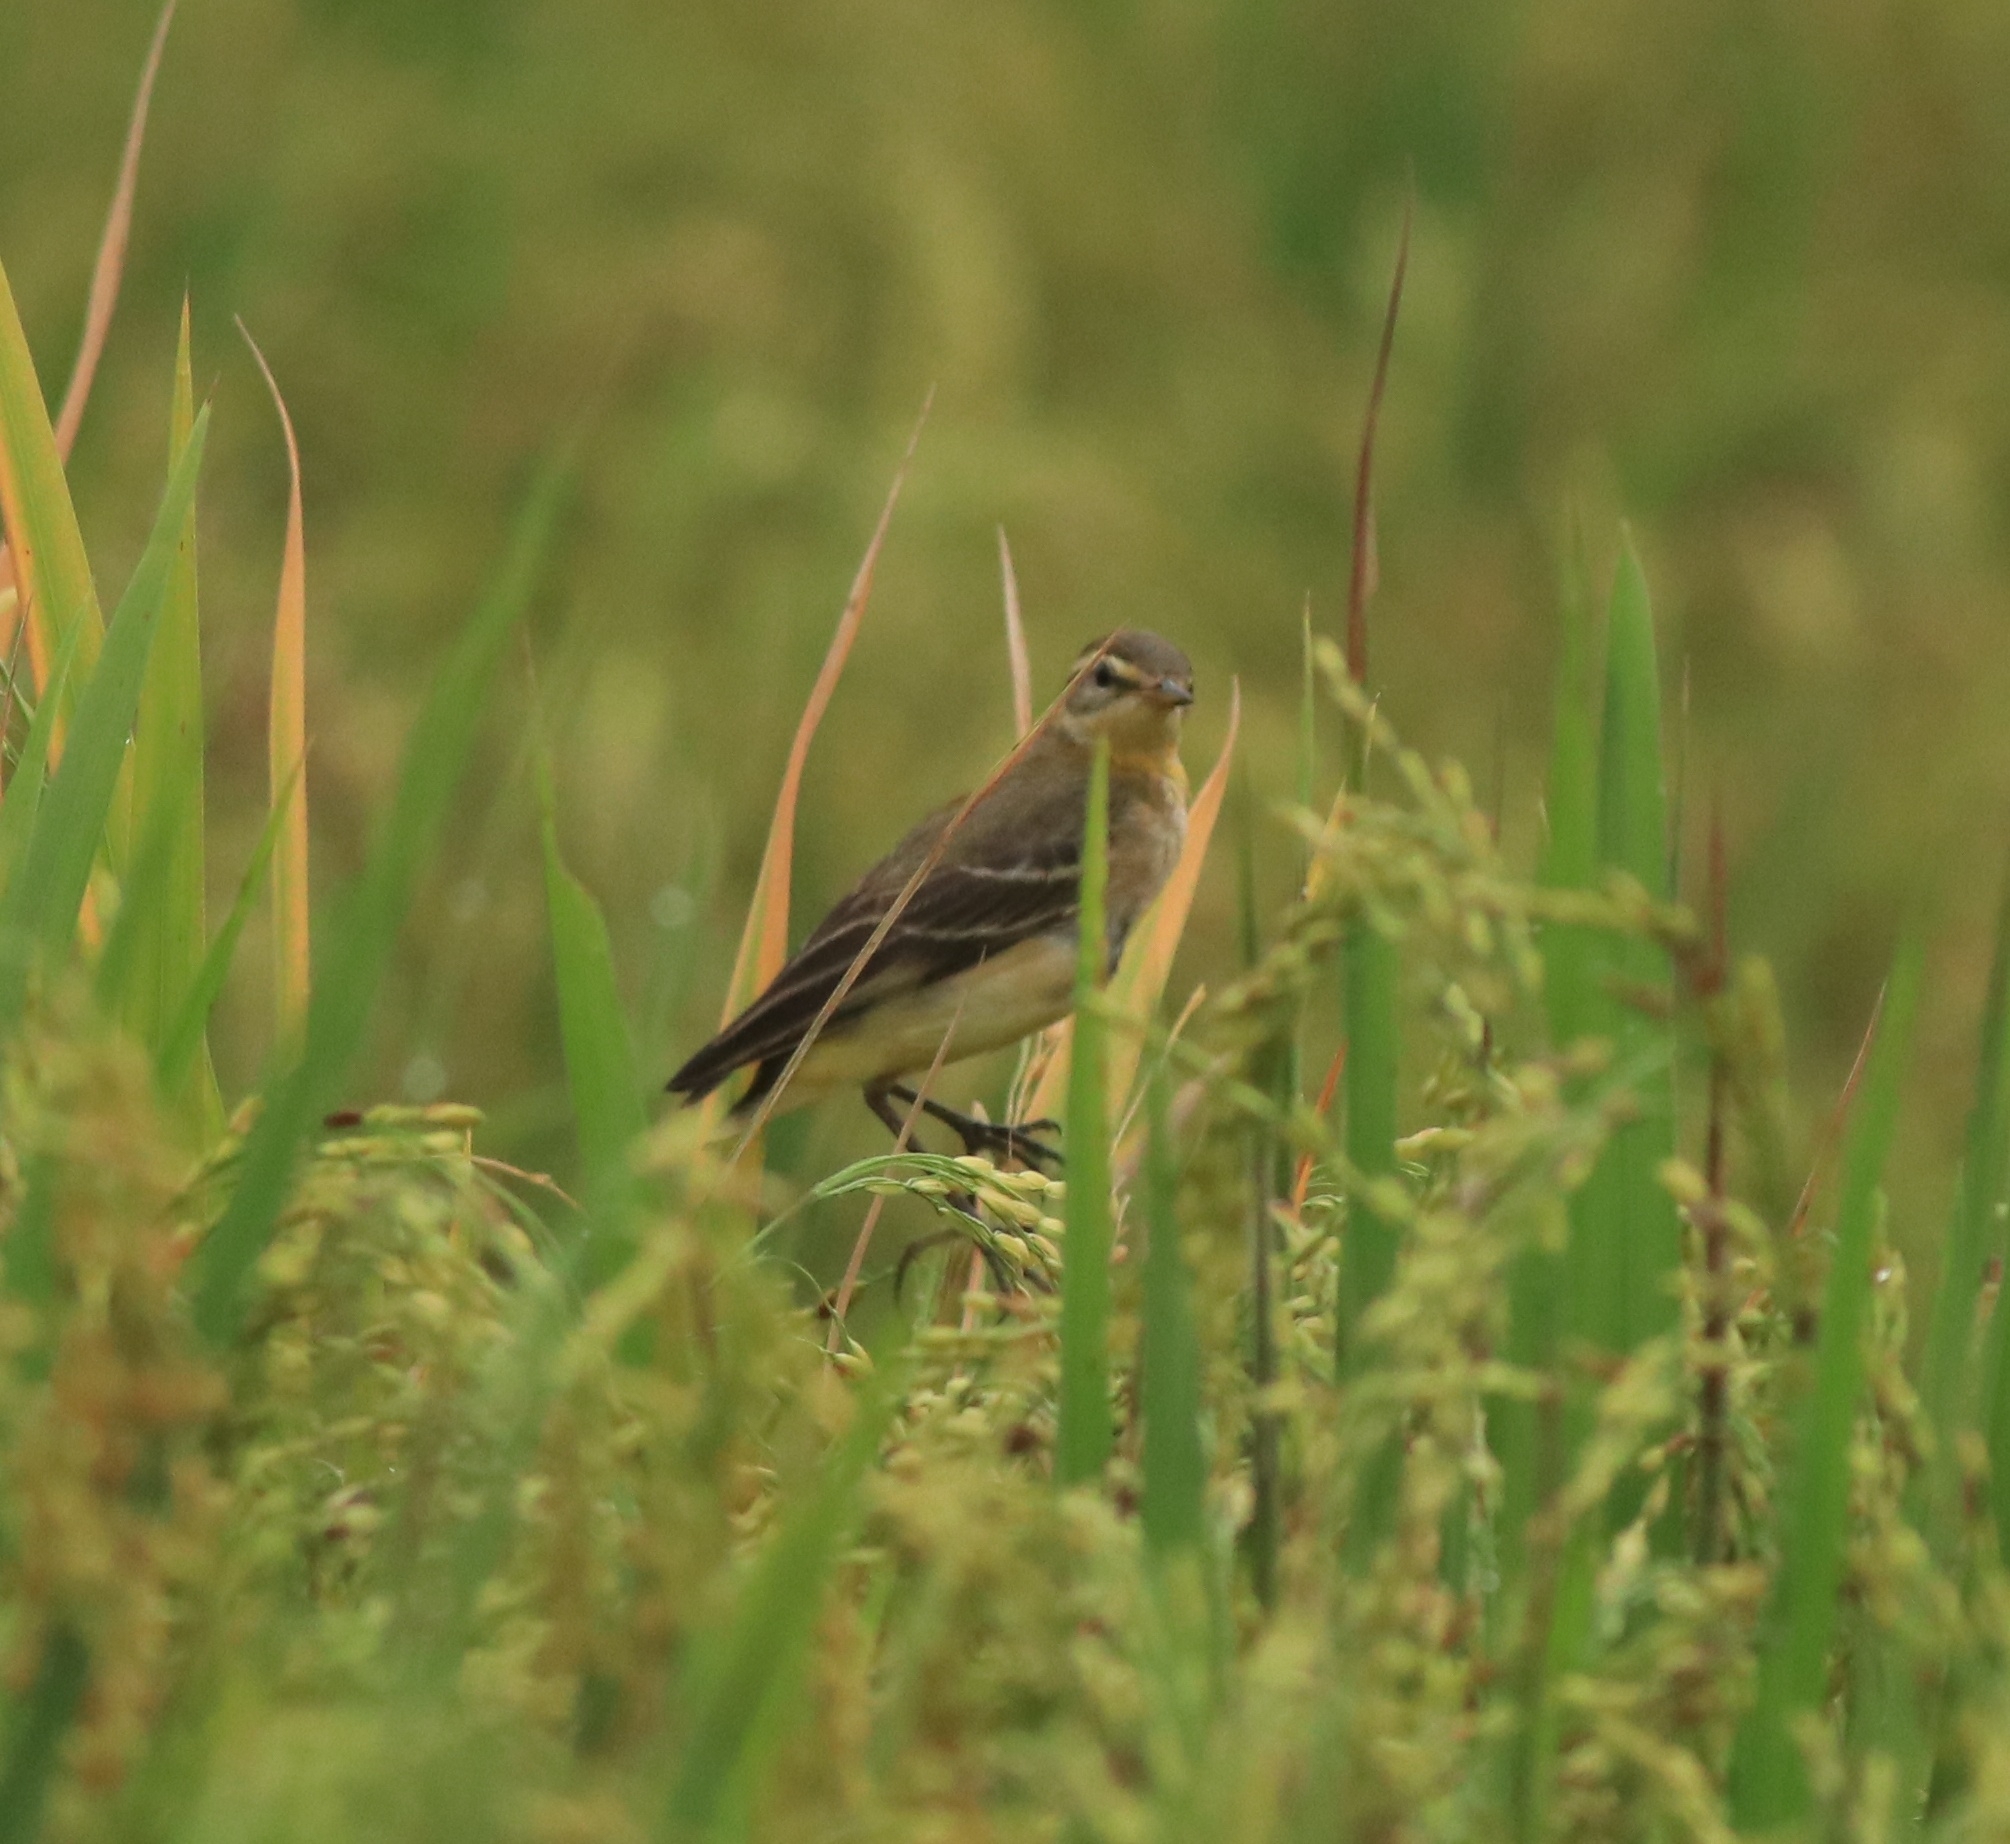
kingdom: Animalia
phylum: Chordata
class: Aves
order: Passeriformes
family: Motacillidae
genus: Motacilla
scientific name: Motacilla flava
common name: Western yellow wagtail
